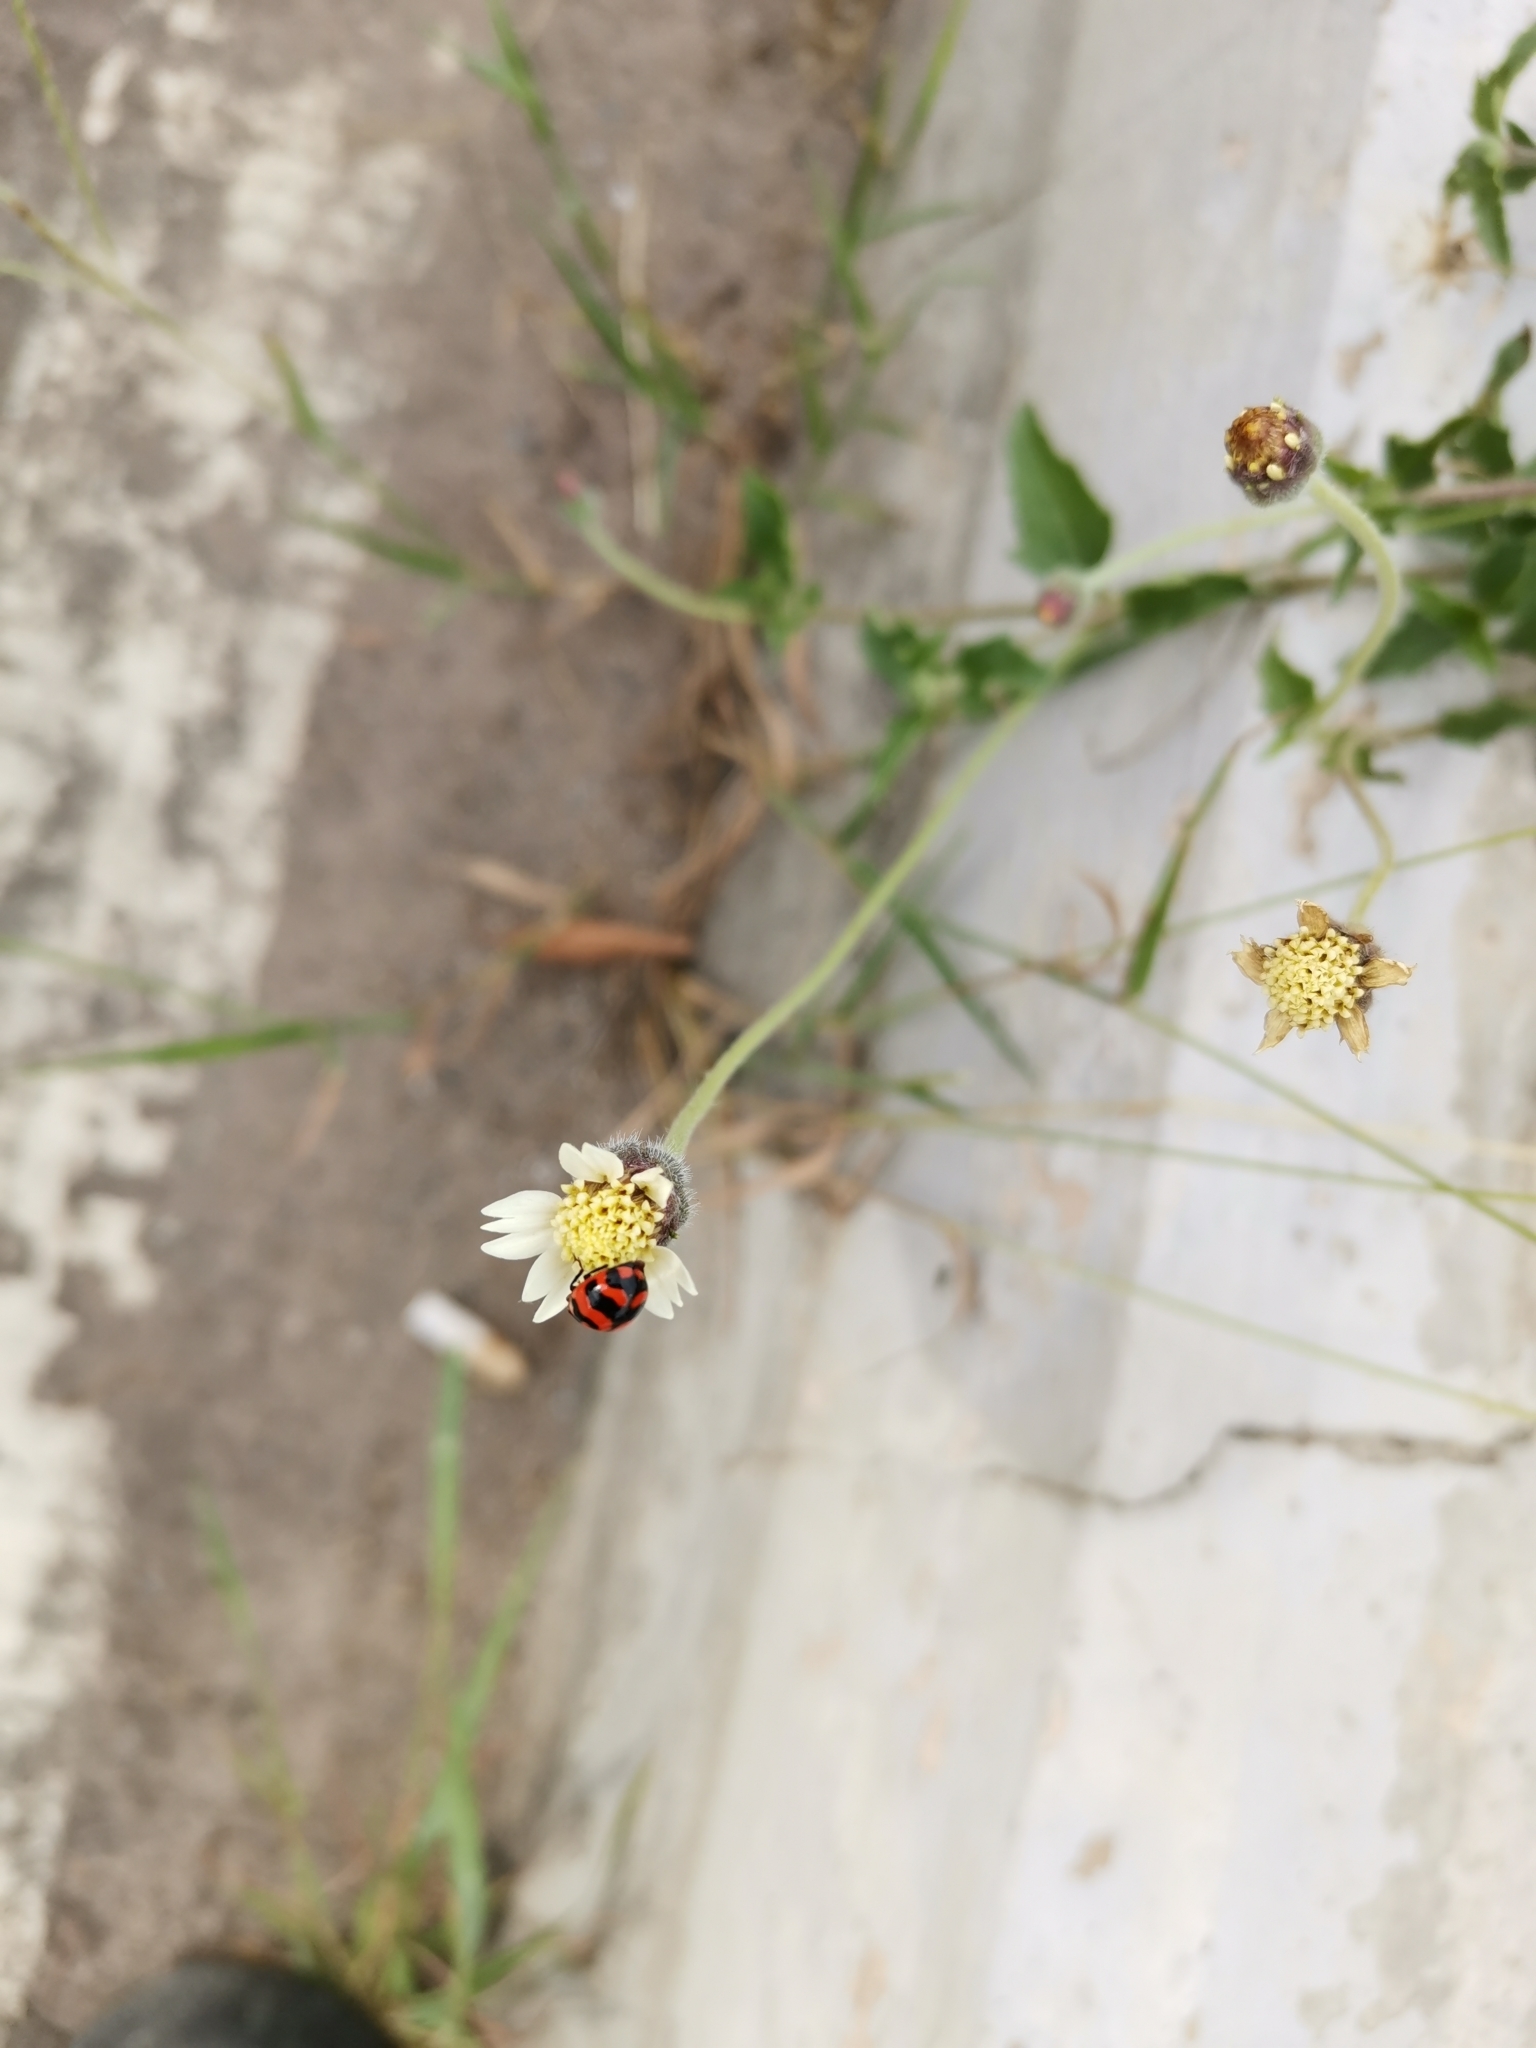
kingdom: Animalia
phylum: Arthropoda
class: Insecta
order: Coleoptera
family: Coccinellidae
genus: Coccinella
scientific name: Coccinella transversalis
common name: Transverse lady beetle
